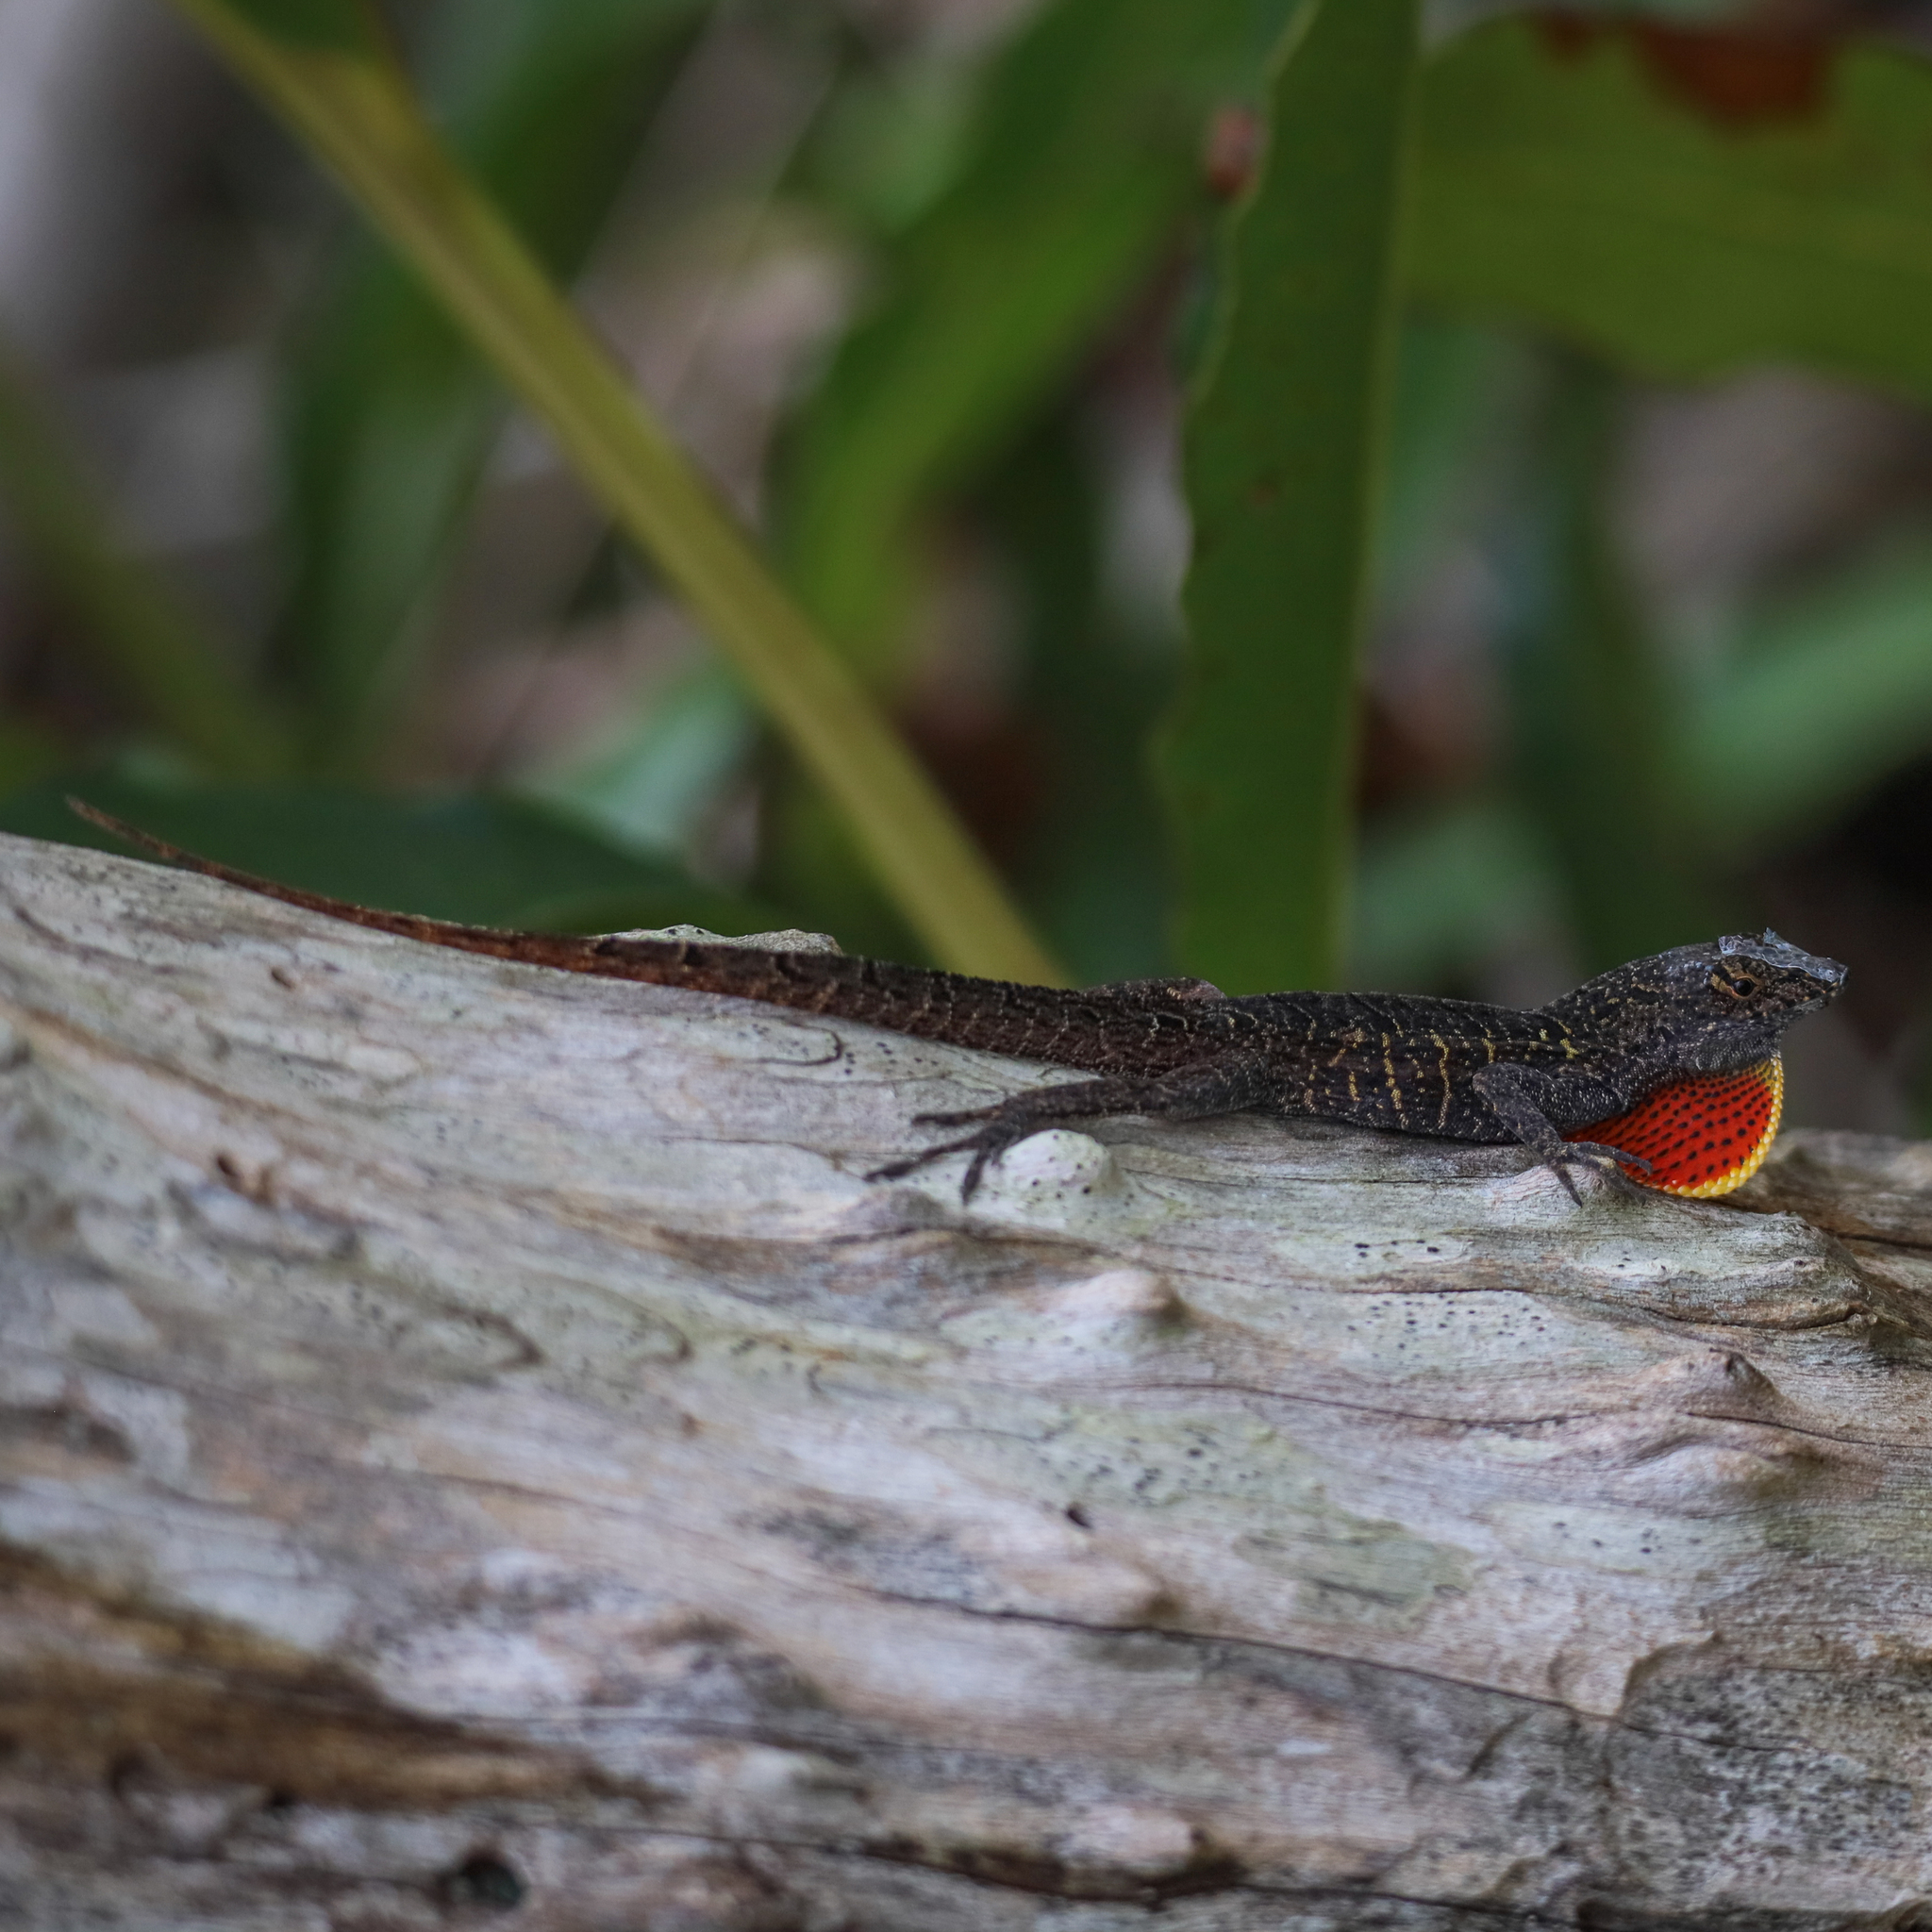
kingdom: Animalia
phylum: Chordata
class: Squamata
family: Dactyloidae
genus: Anolis
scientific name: Anolis sagrei
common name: Brown anole
